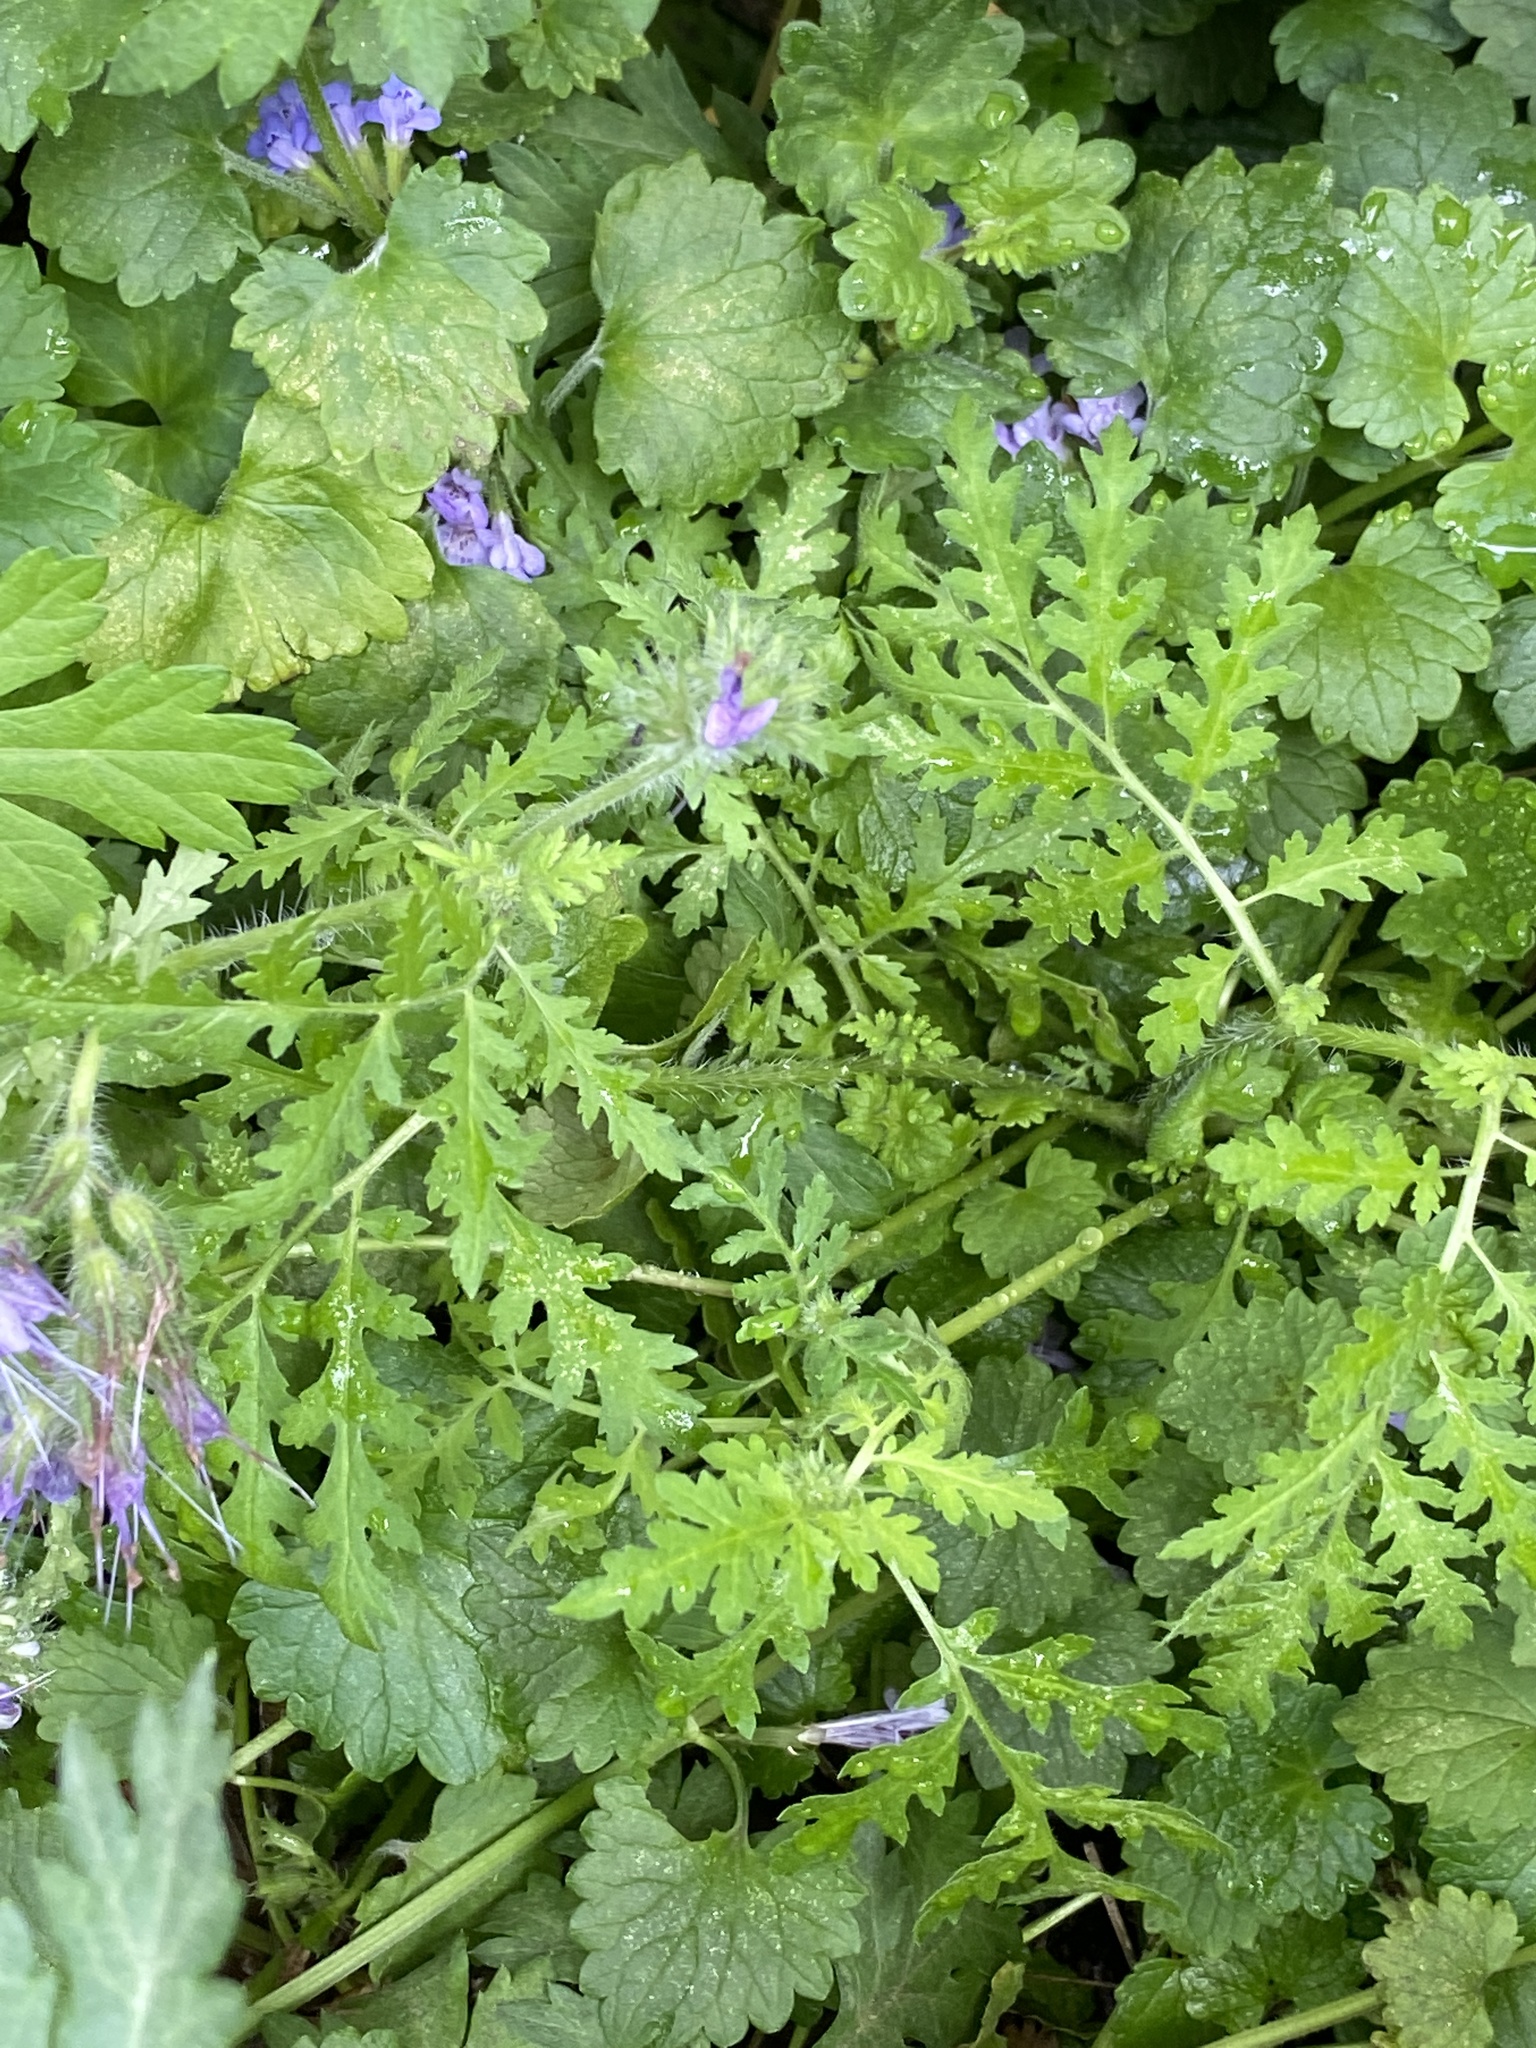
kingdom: Plantae
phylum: Tracheophyta
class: Magnoliopsida
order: Boraginales
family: Hydrophyllaceae
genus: Phacelia
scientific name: Phacelia tanacetifolia
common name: Phacelia
